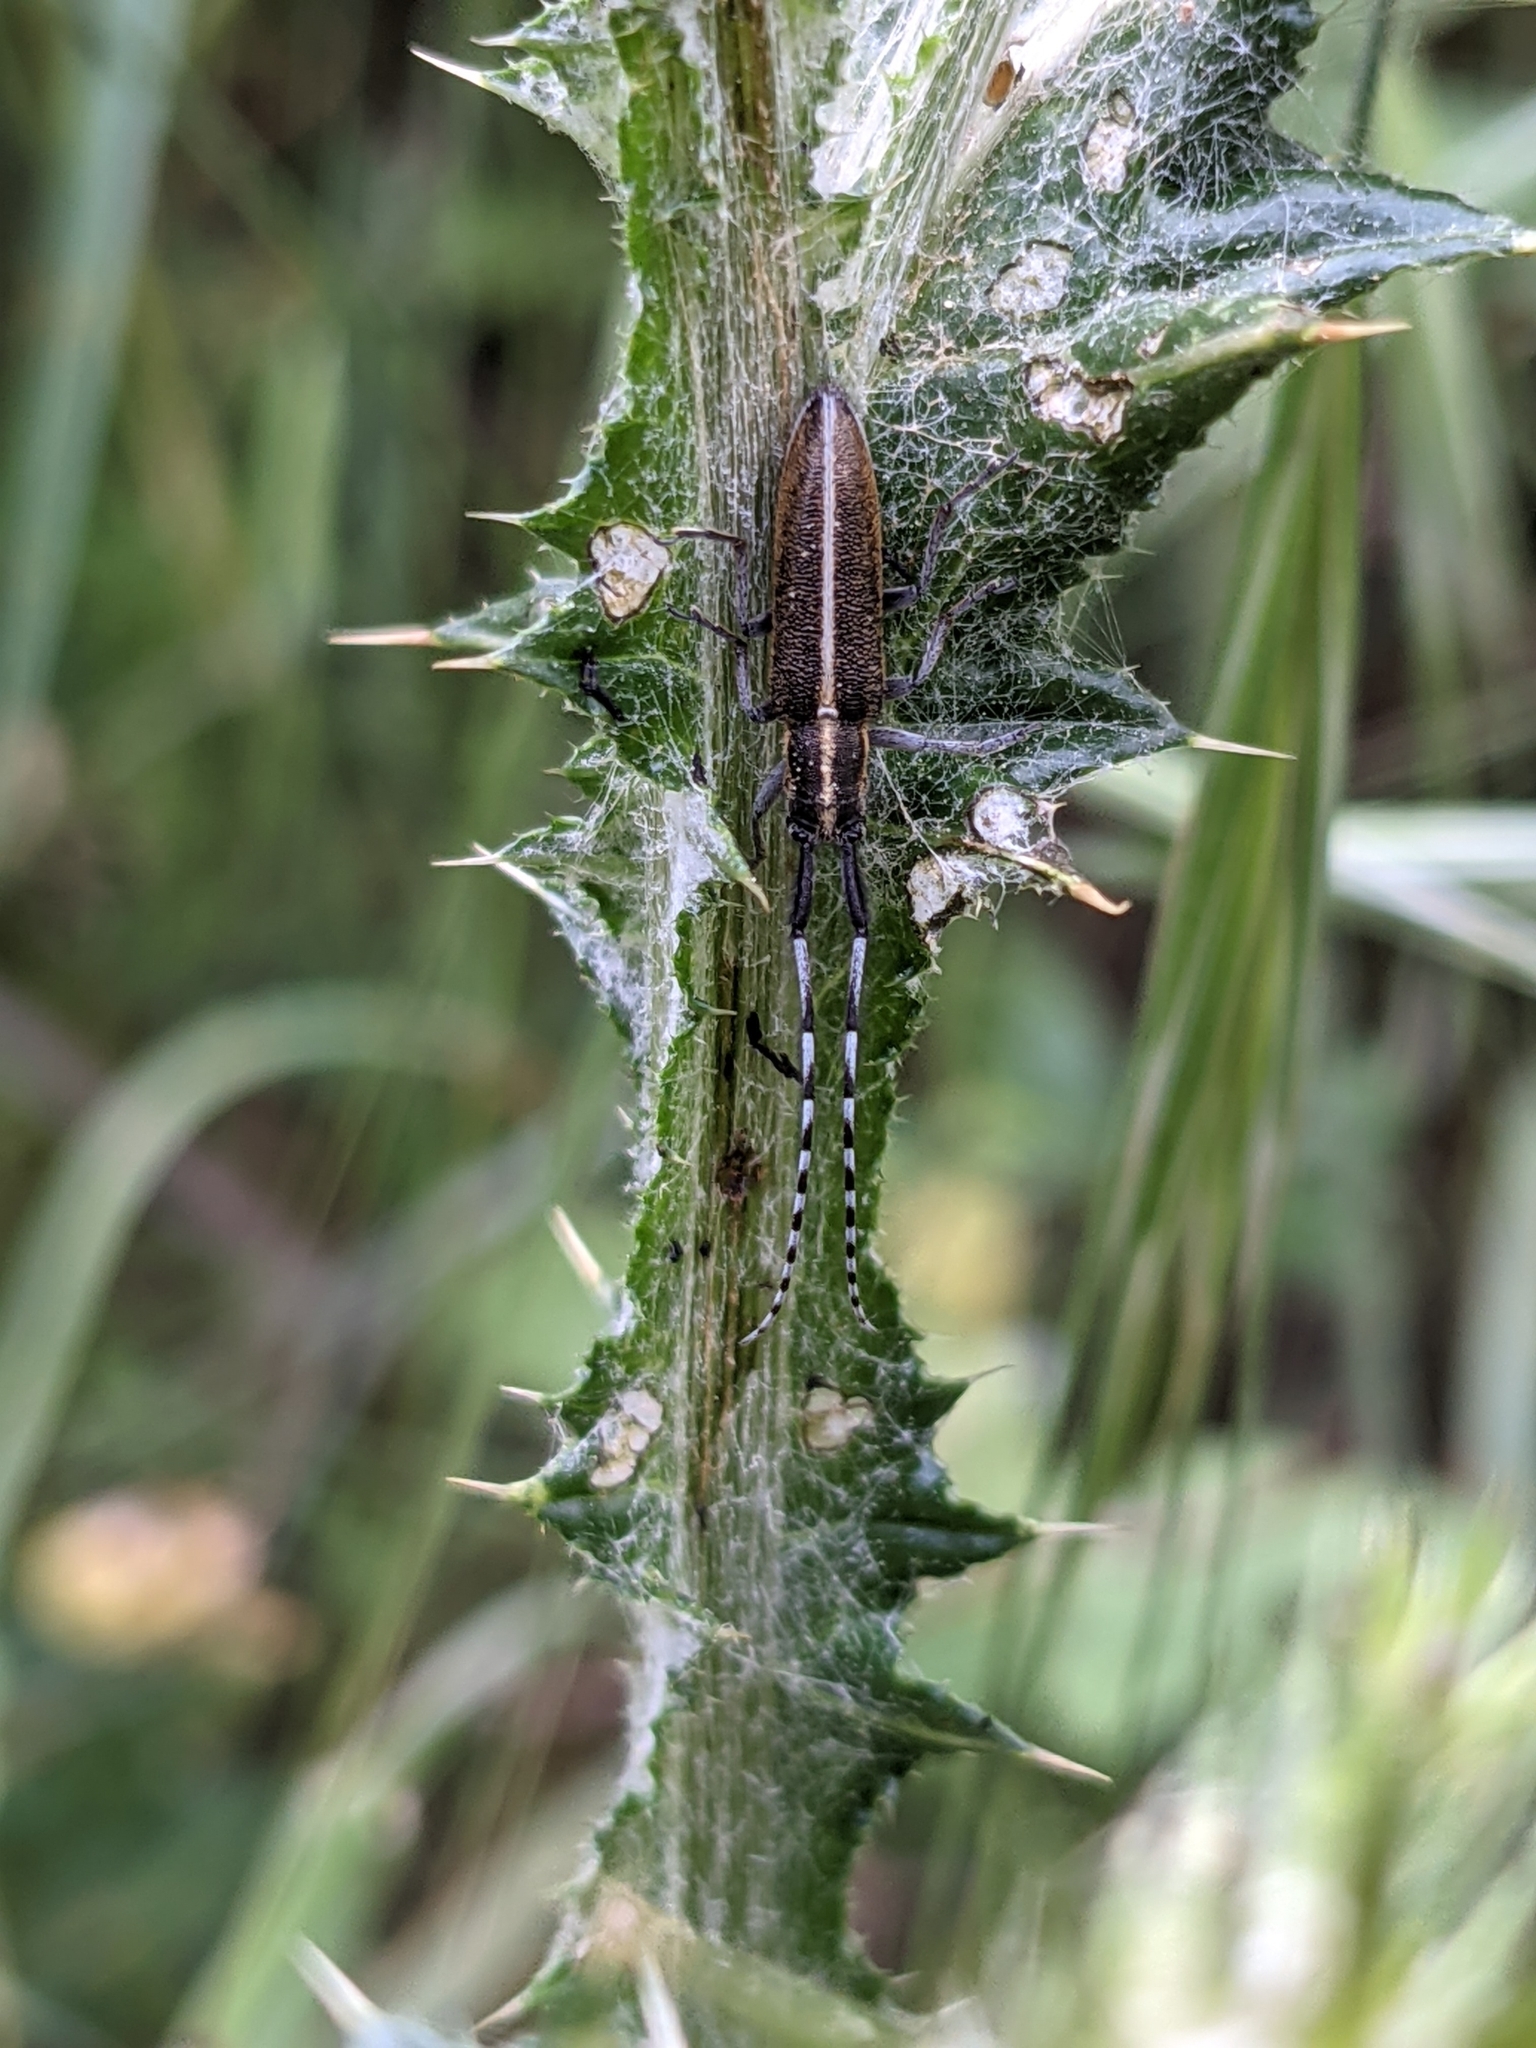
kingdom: Animalia
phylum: Arthropoda
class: Insecta
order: Coleoptera
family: Cerambycidae
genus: Agapanthia
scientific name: Agapanthia suturalis
